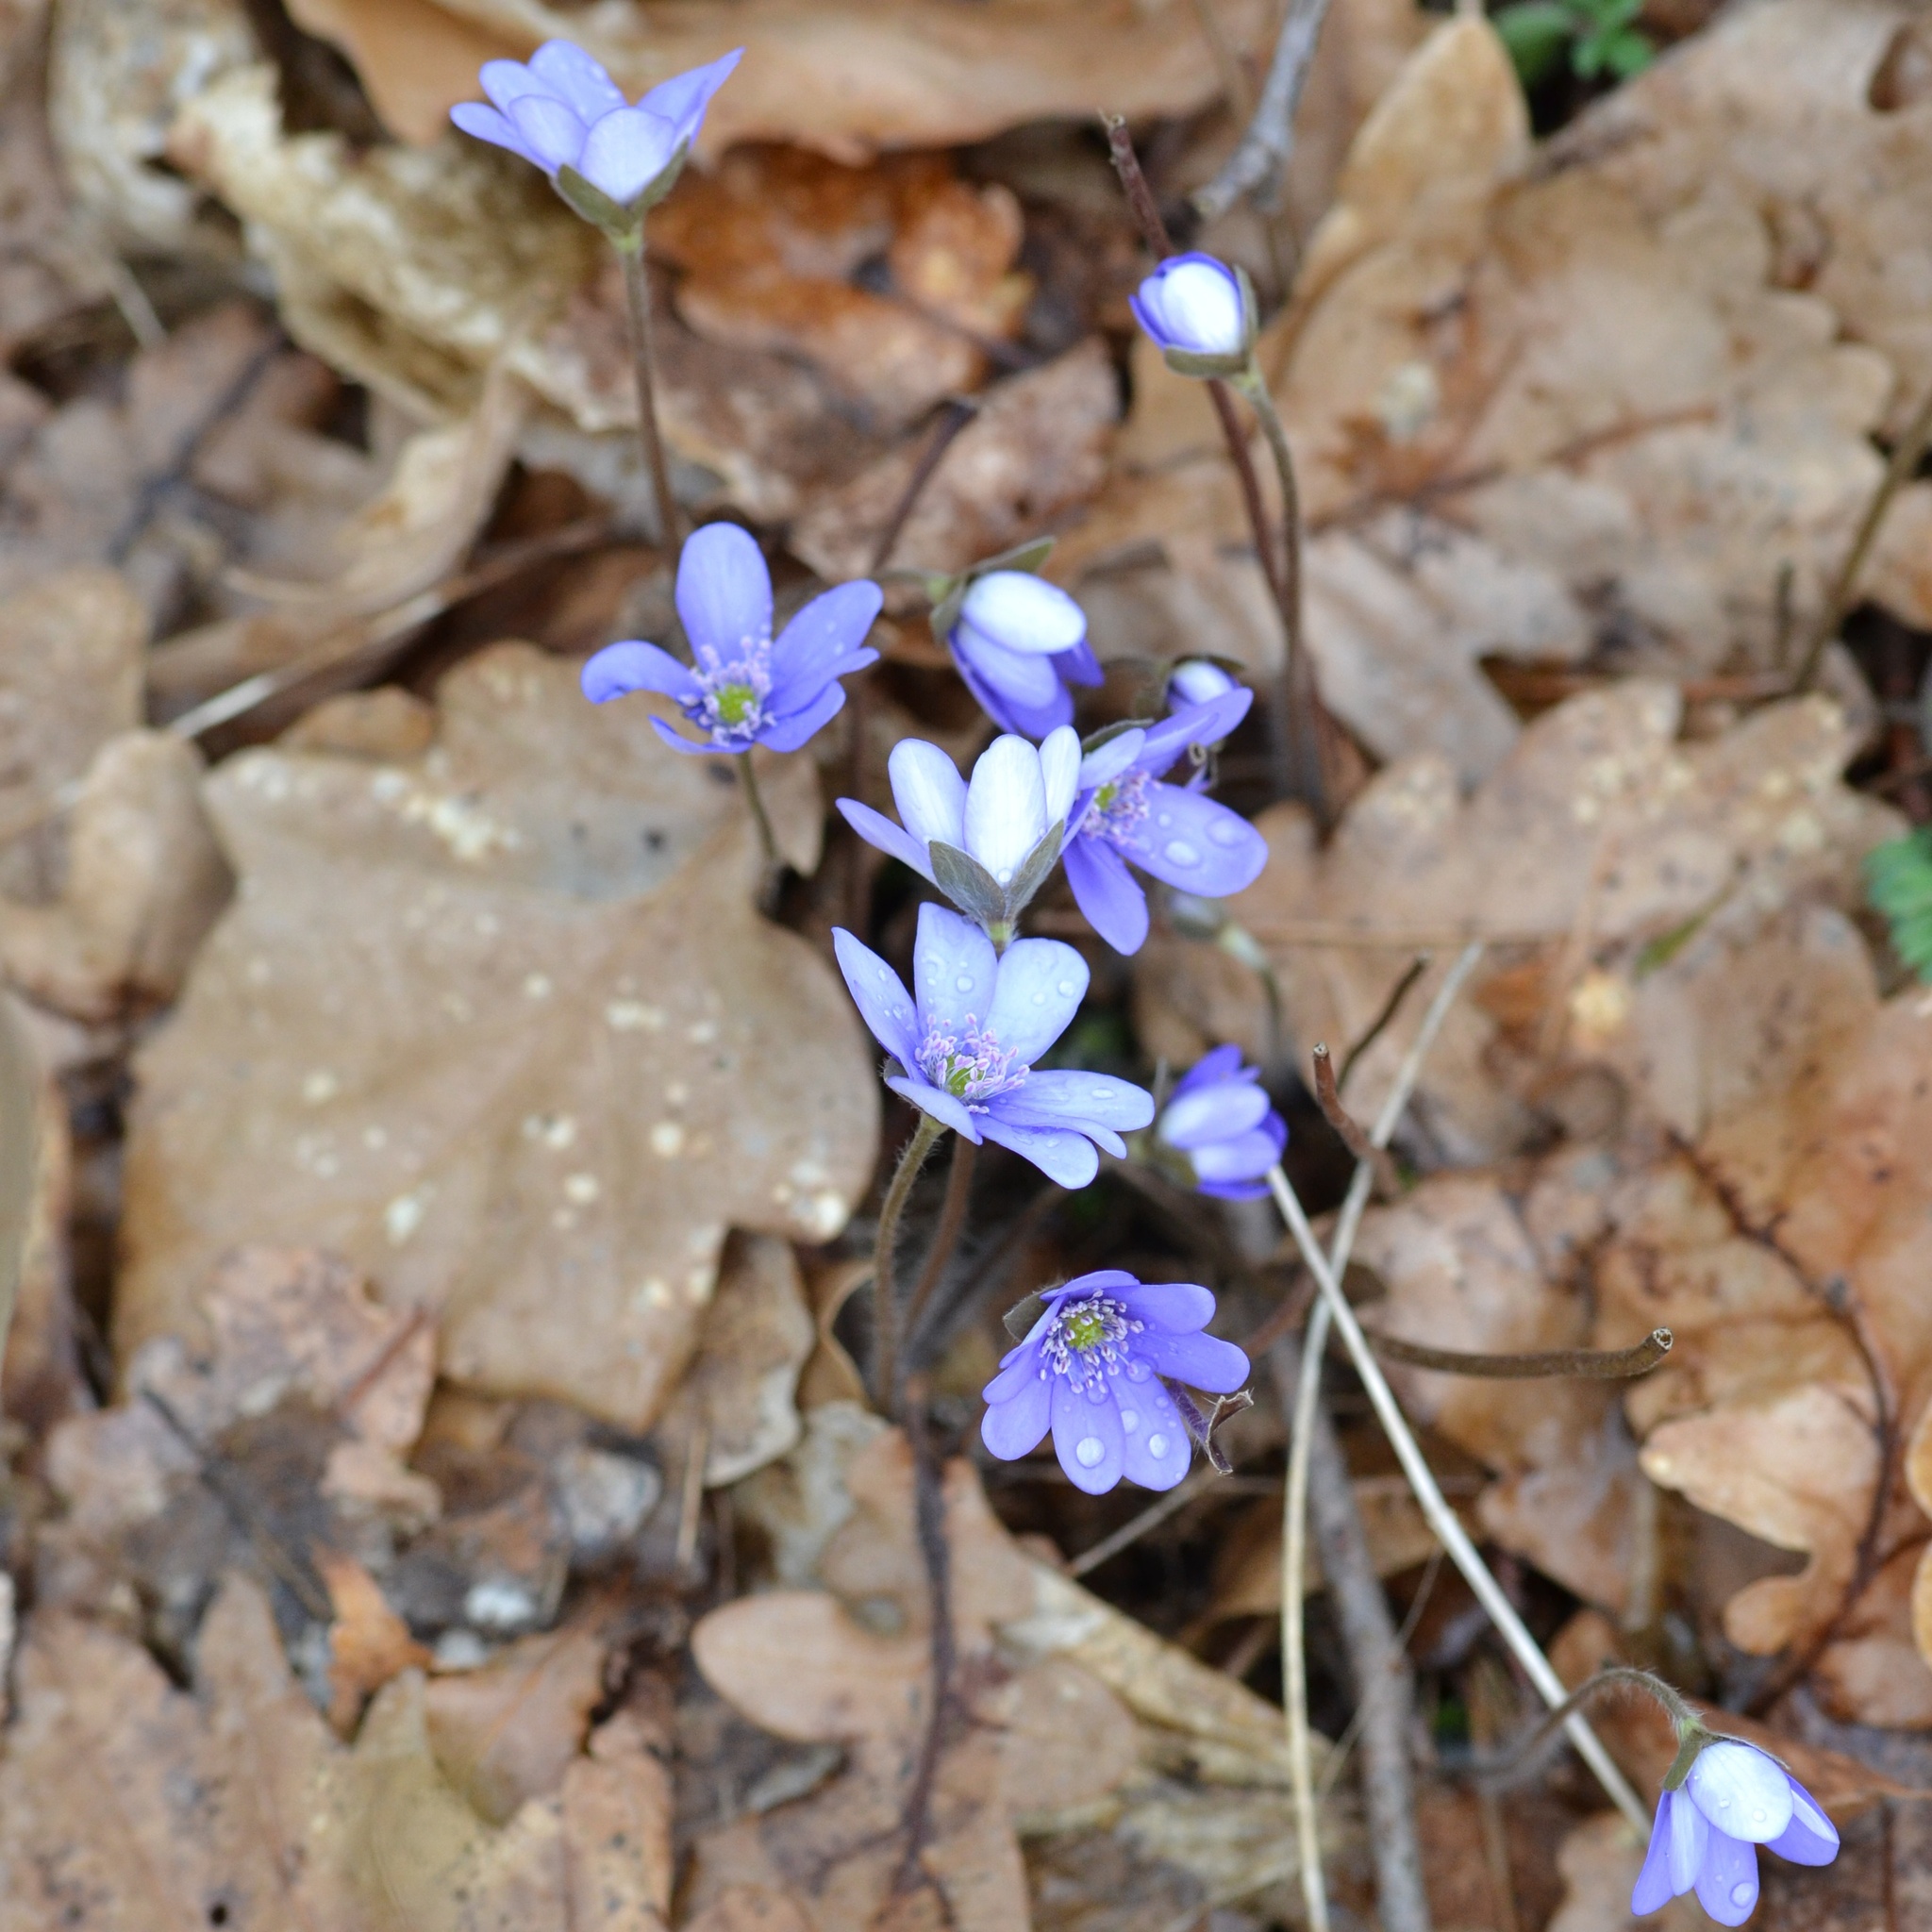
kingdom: Plantae
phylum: Tracheophyta
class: Magnoliopsida
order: Ranunculales
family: Ranunculaceae
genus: Hepatica
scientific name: Hepatica nobilis
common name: Liverleaf
